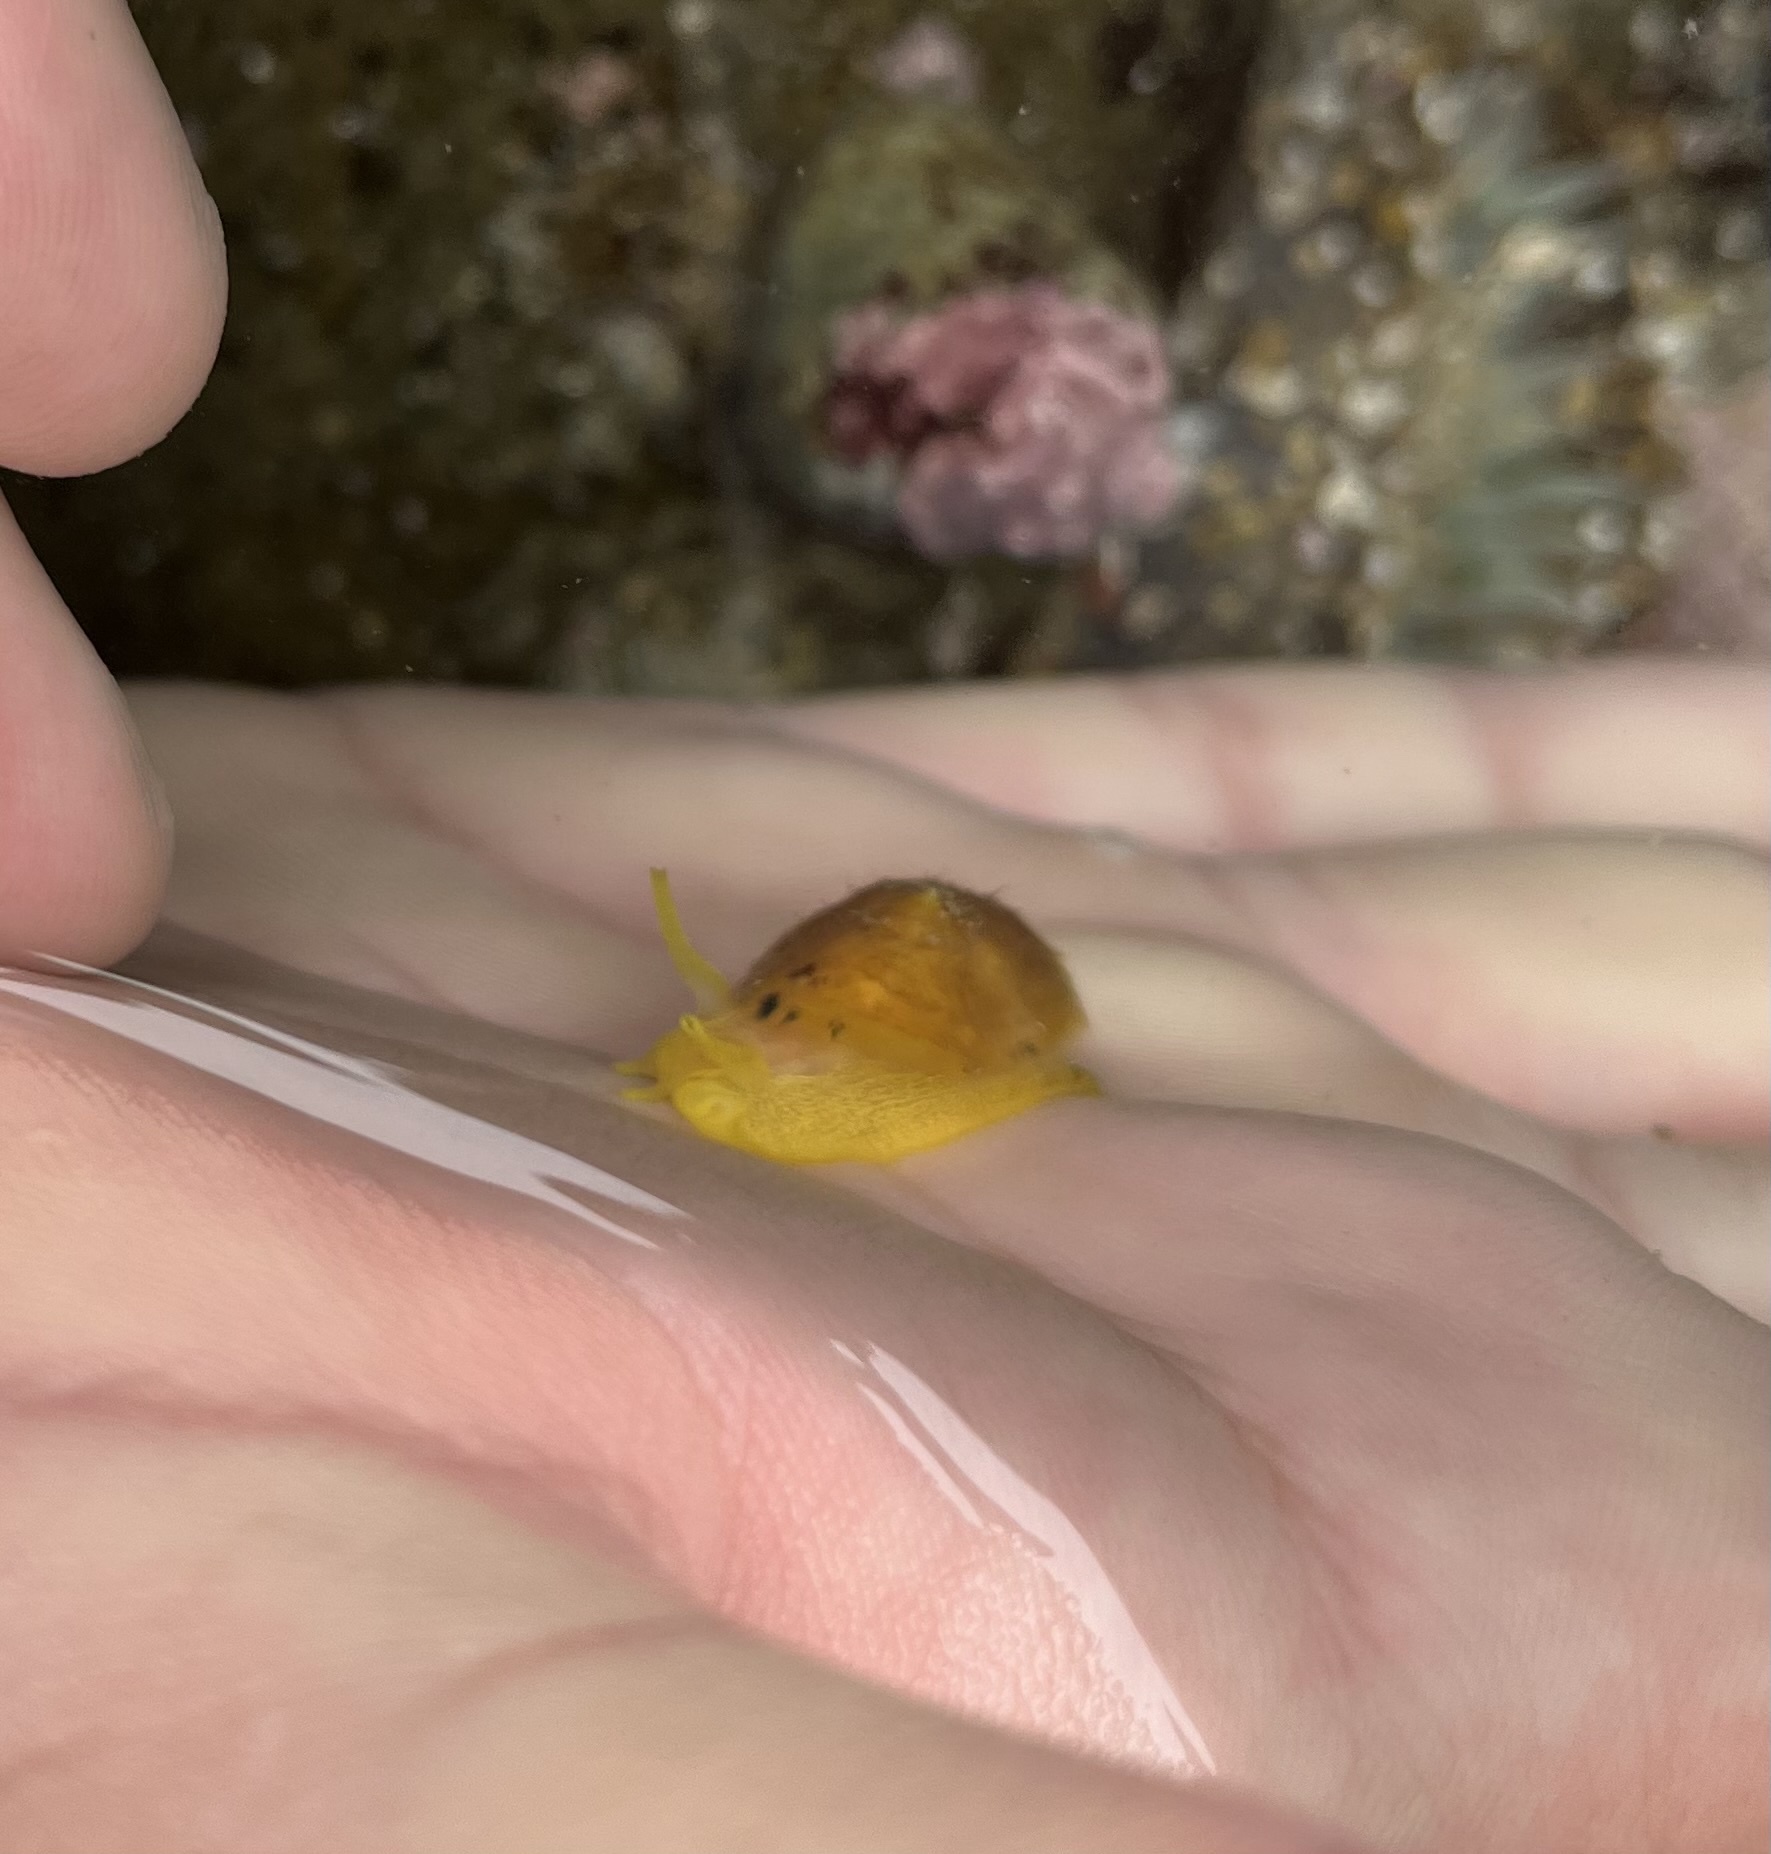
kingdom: Animalia
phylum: Mollusca
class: Gastropoda
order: Umbraculida
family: Tylodinidae
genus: Tylodina
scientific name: Tylodina fungina
